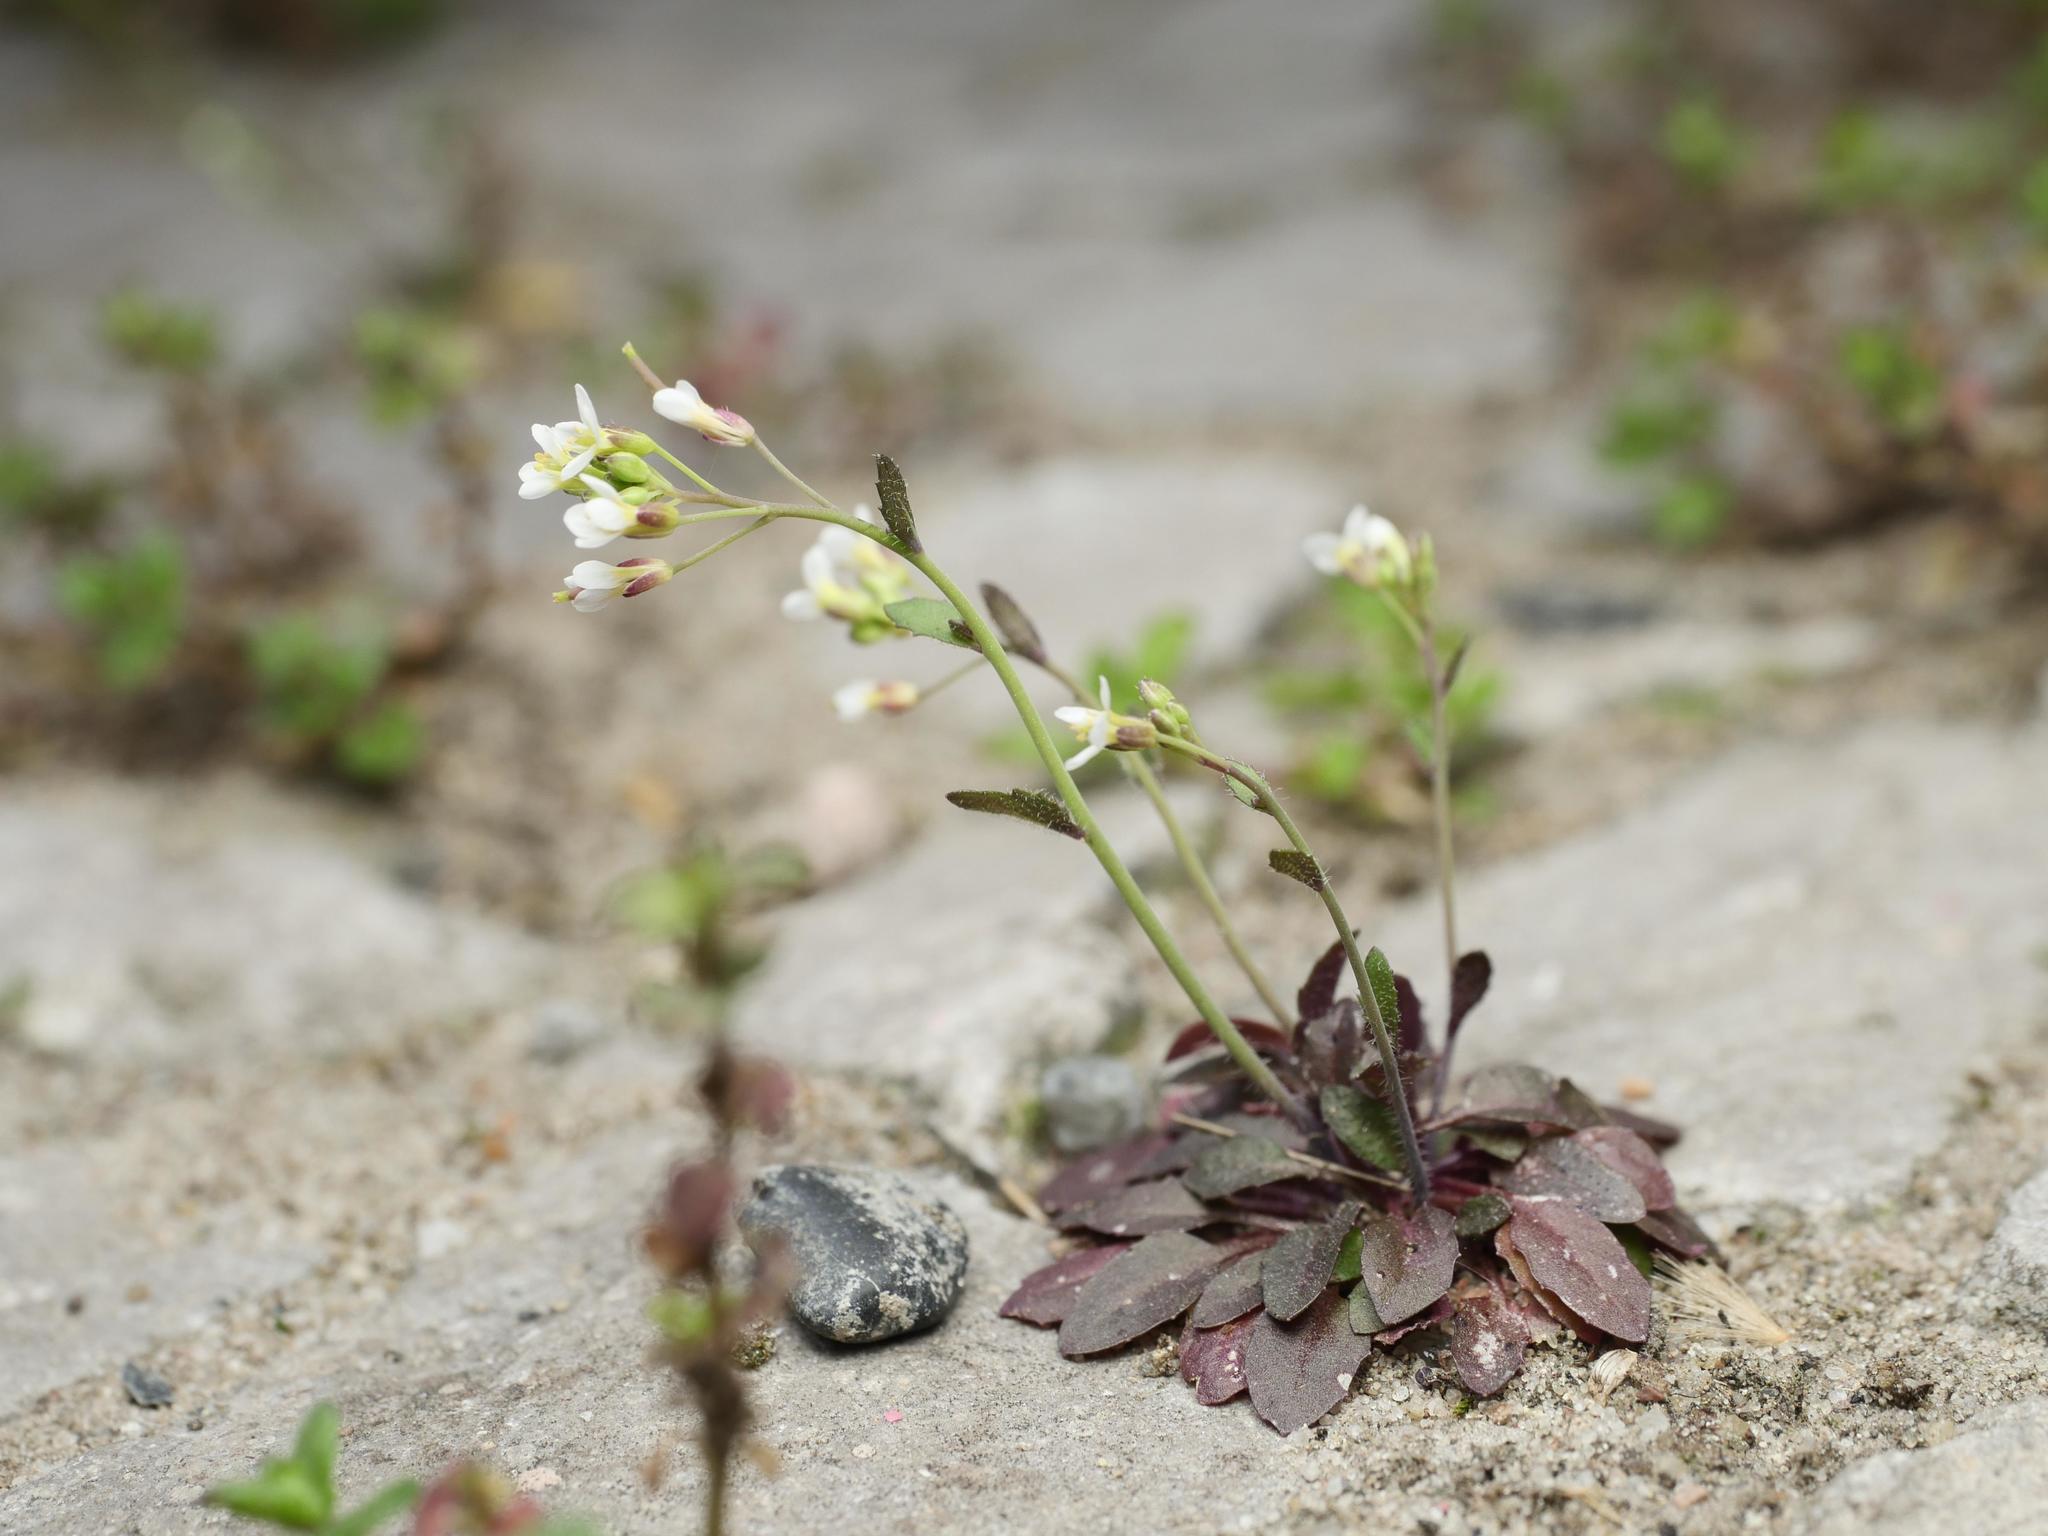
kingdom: Plantae
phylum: Tracheophyta
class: Magnoliopsida
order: Brassicales
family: Brassicaceae
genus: Arabidopsis
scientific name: Arabidopsis thaliana
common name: Thale cress
